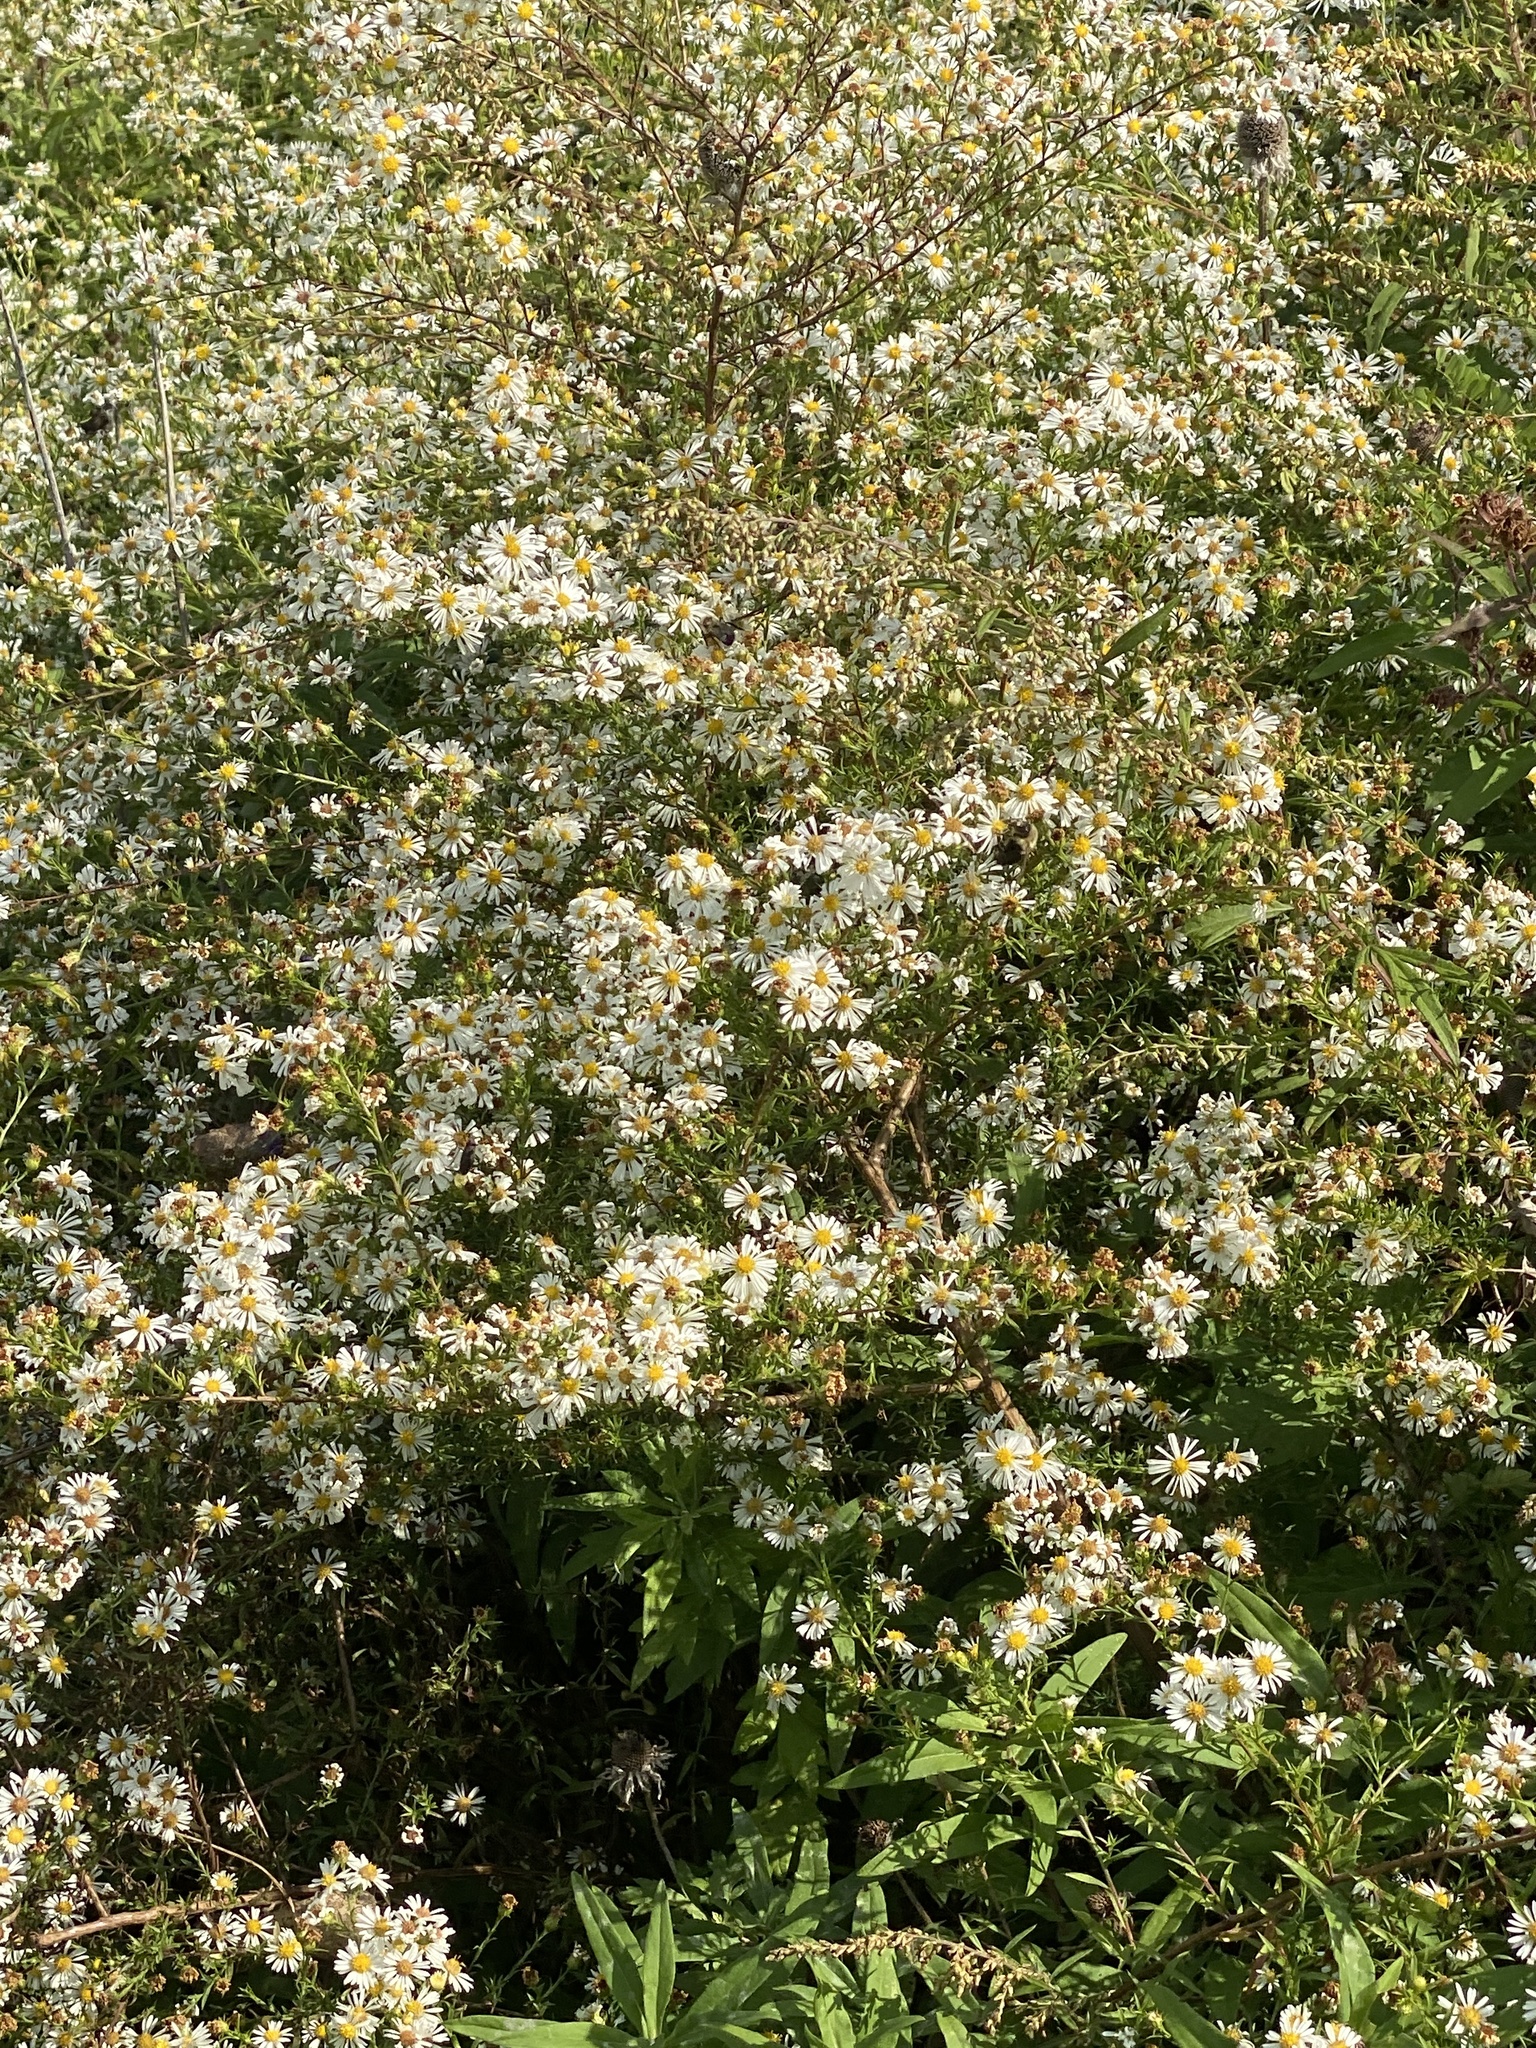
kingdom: Plantae
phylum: Tracheophyta
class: Magnoliopsida
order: Asterales
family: Asteraceae
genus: Symphyotrichum
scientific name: Symphyotrichum lanceolatum
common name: Panicled aster
